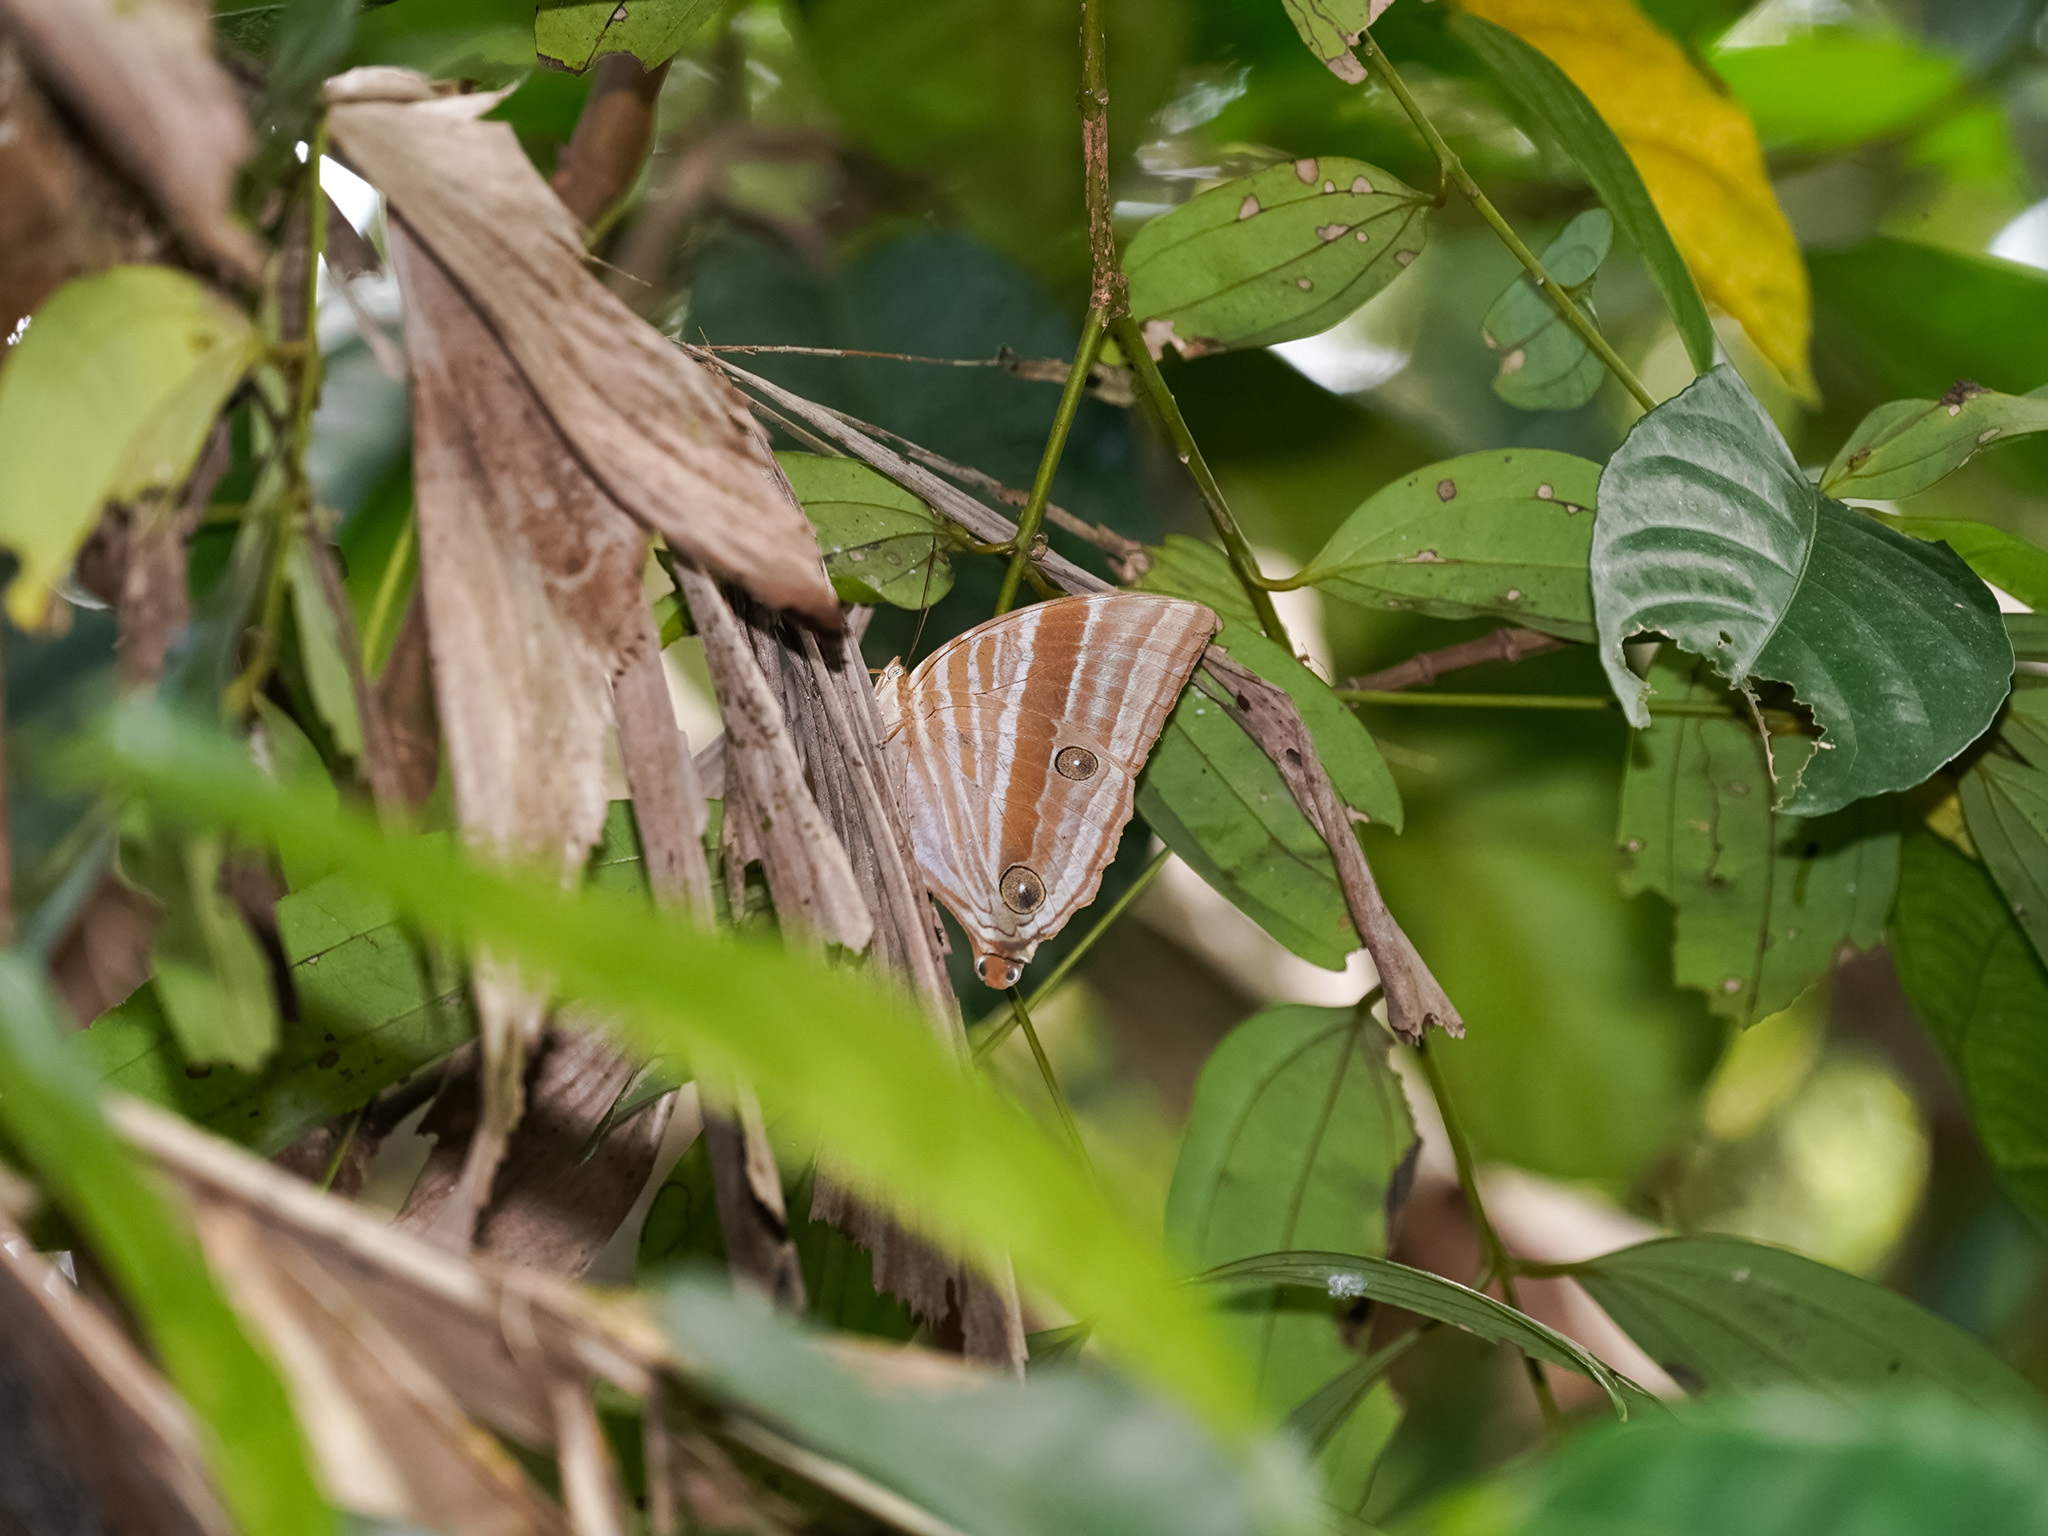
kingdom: Animalia
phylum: Arthropoda
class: Insecta
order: Lepidoptera
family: Nymphalidae
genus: Amathusia
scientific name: Amathusia phidippus
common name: Palm king
